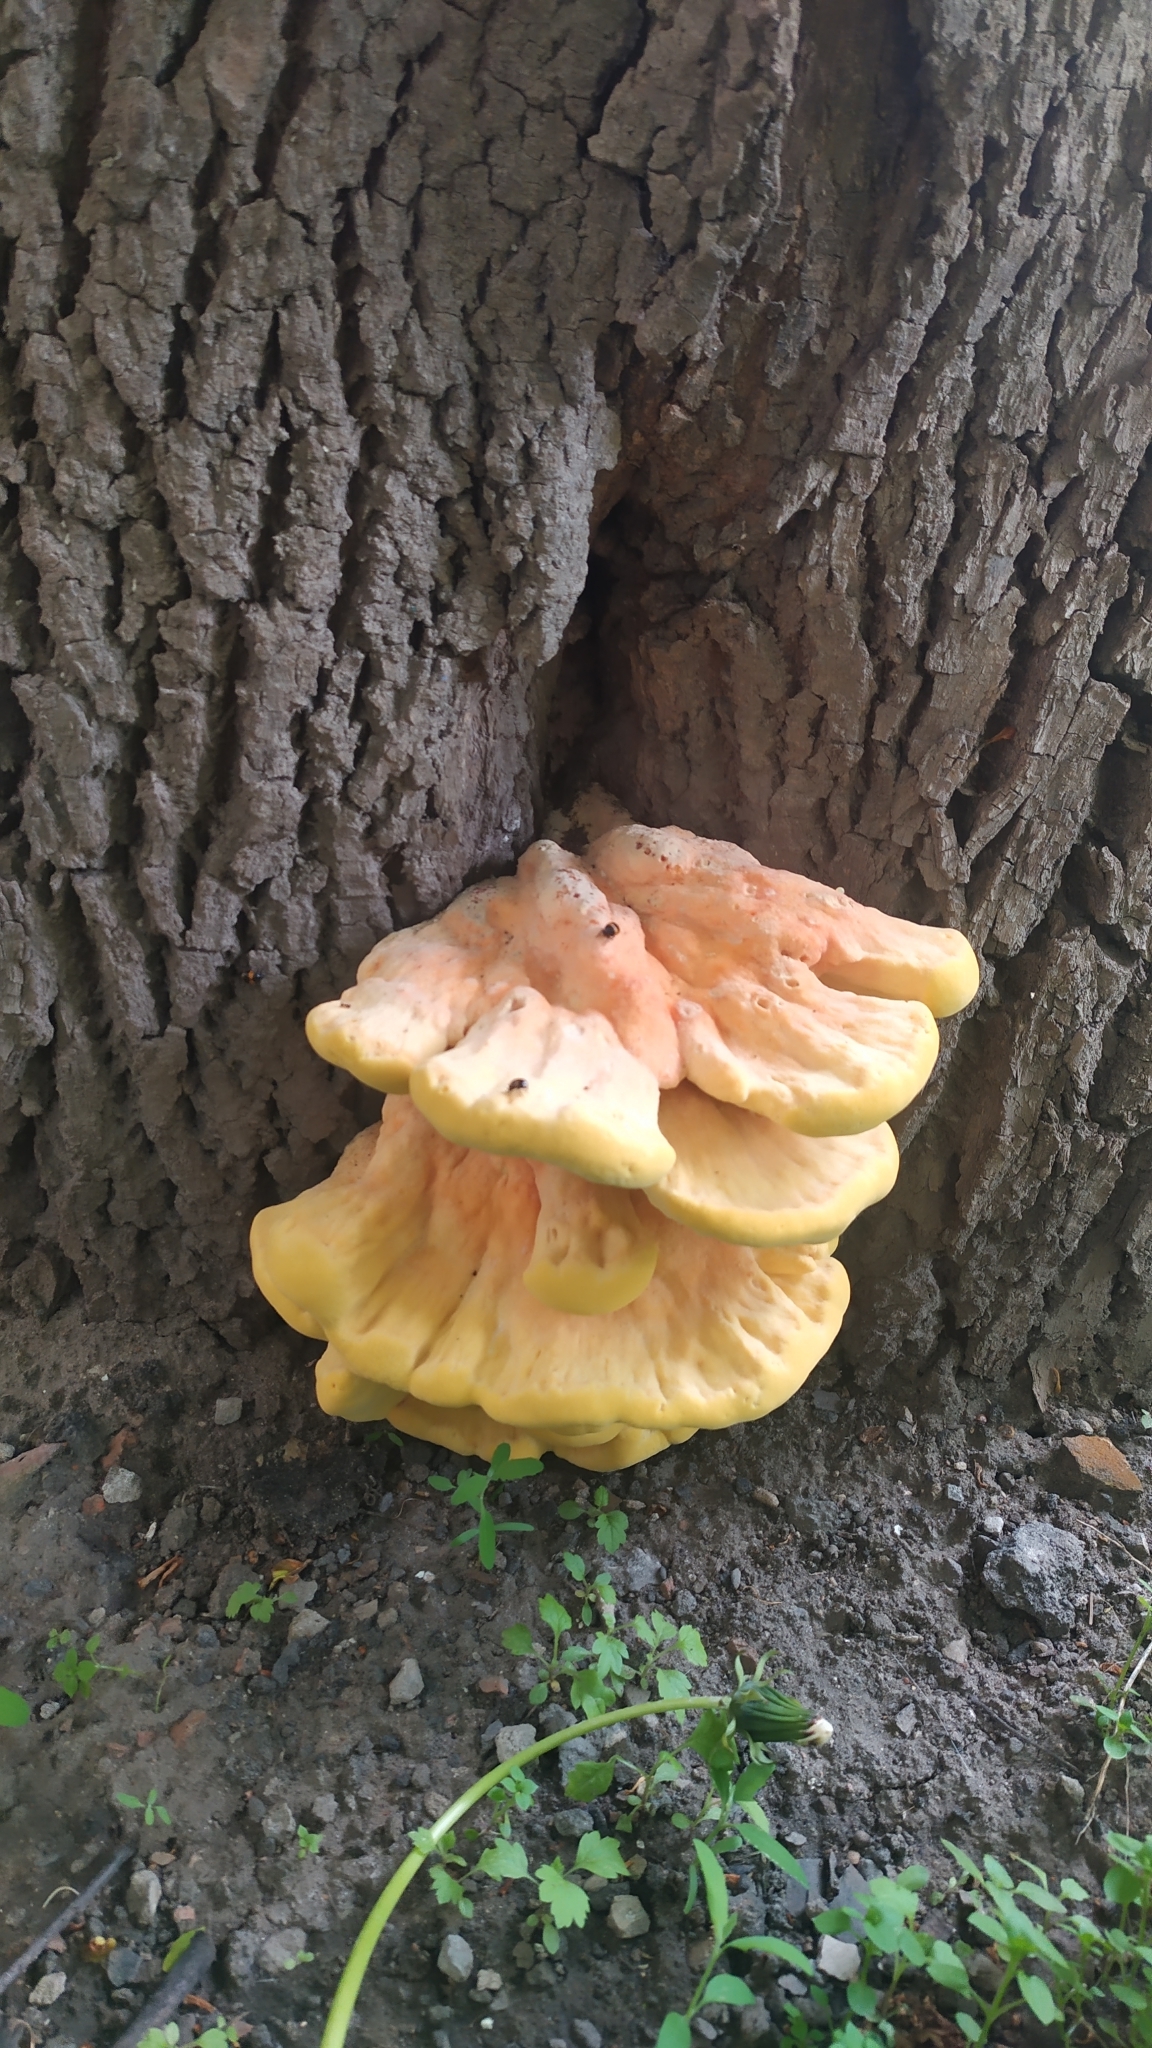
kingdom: Fungi
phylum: Basidiomycota
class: Agaricomycetes
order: Polyporales
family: Laetiporaceae
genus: Laetiporus
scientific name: Laetiporus sulphureus
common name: Chicken of the woods
